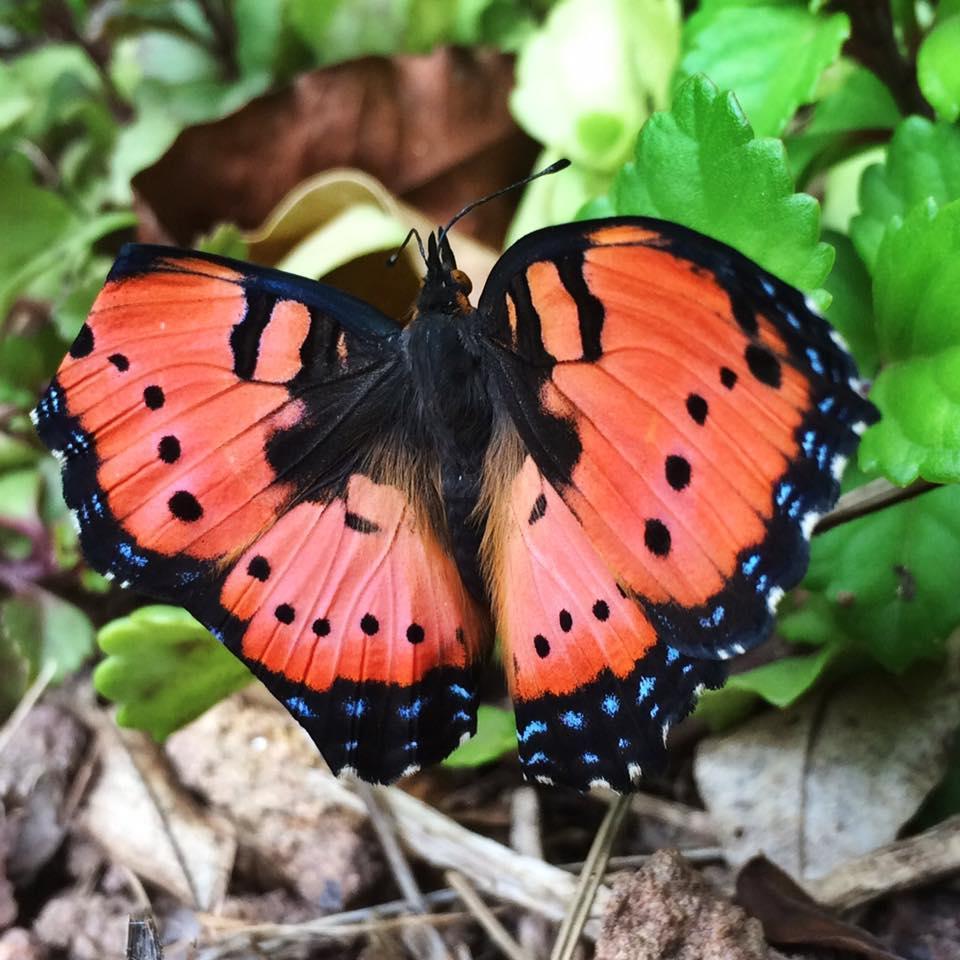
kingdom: Animalia
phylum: Arthropoda
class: Insecta
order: Lepidoptera
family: Nymphalidae
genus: Precis
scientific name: Precis octavia
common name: Gaudy commodore
